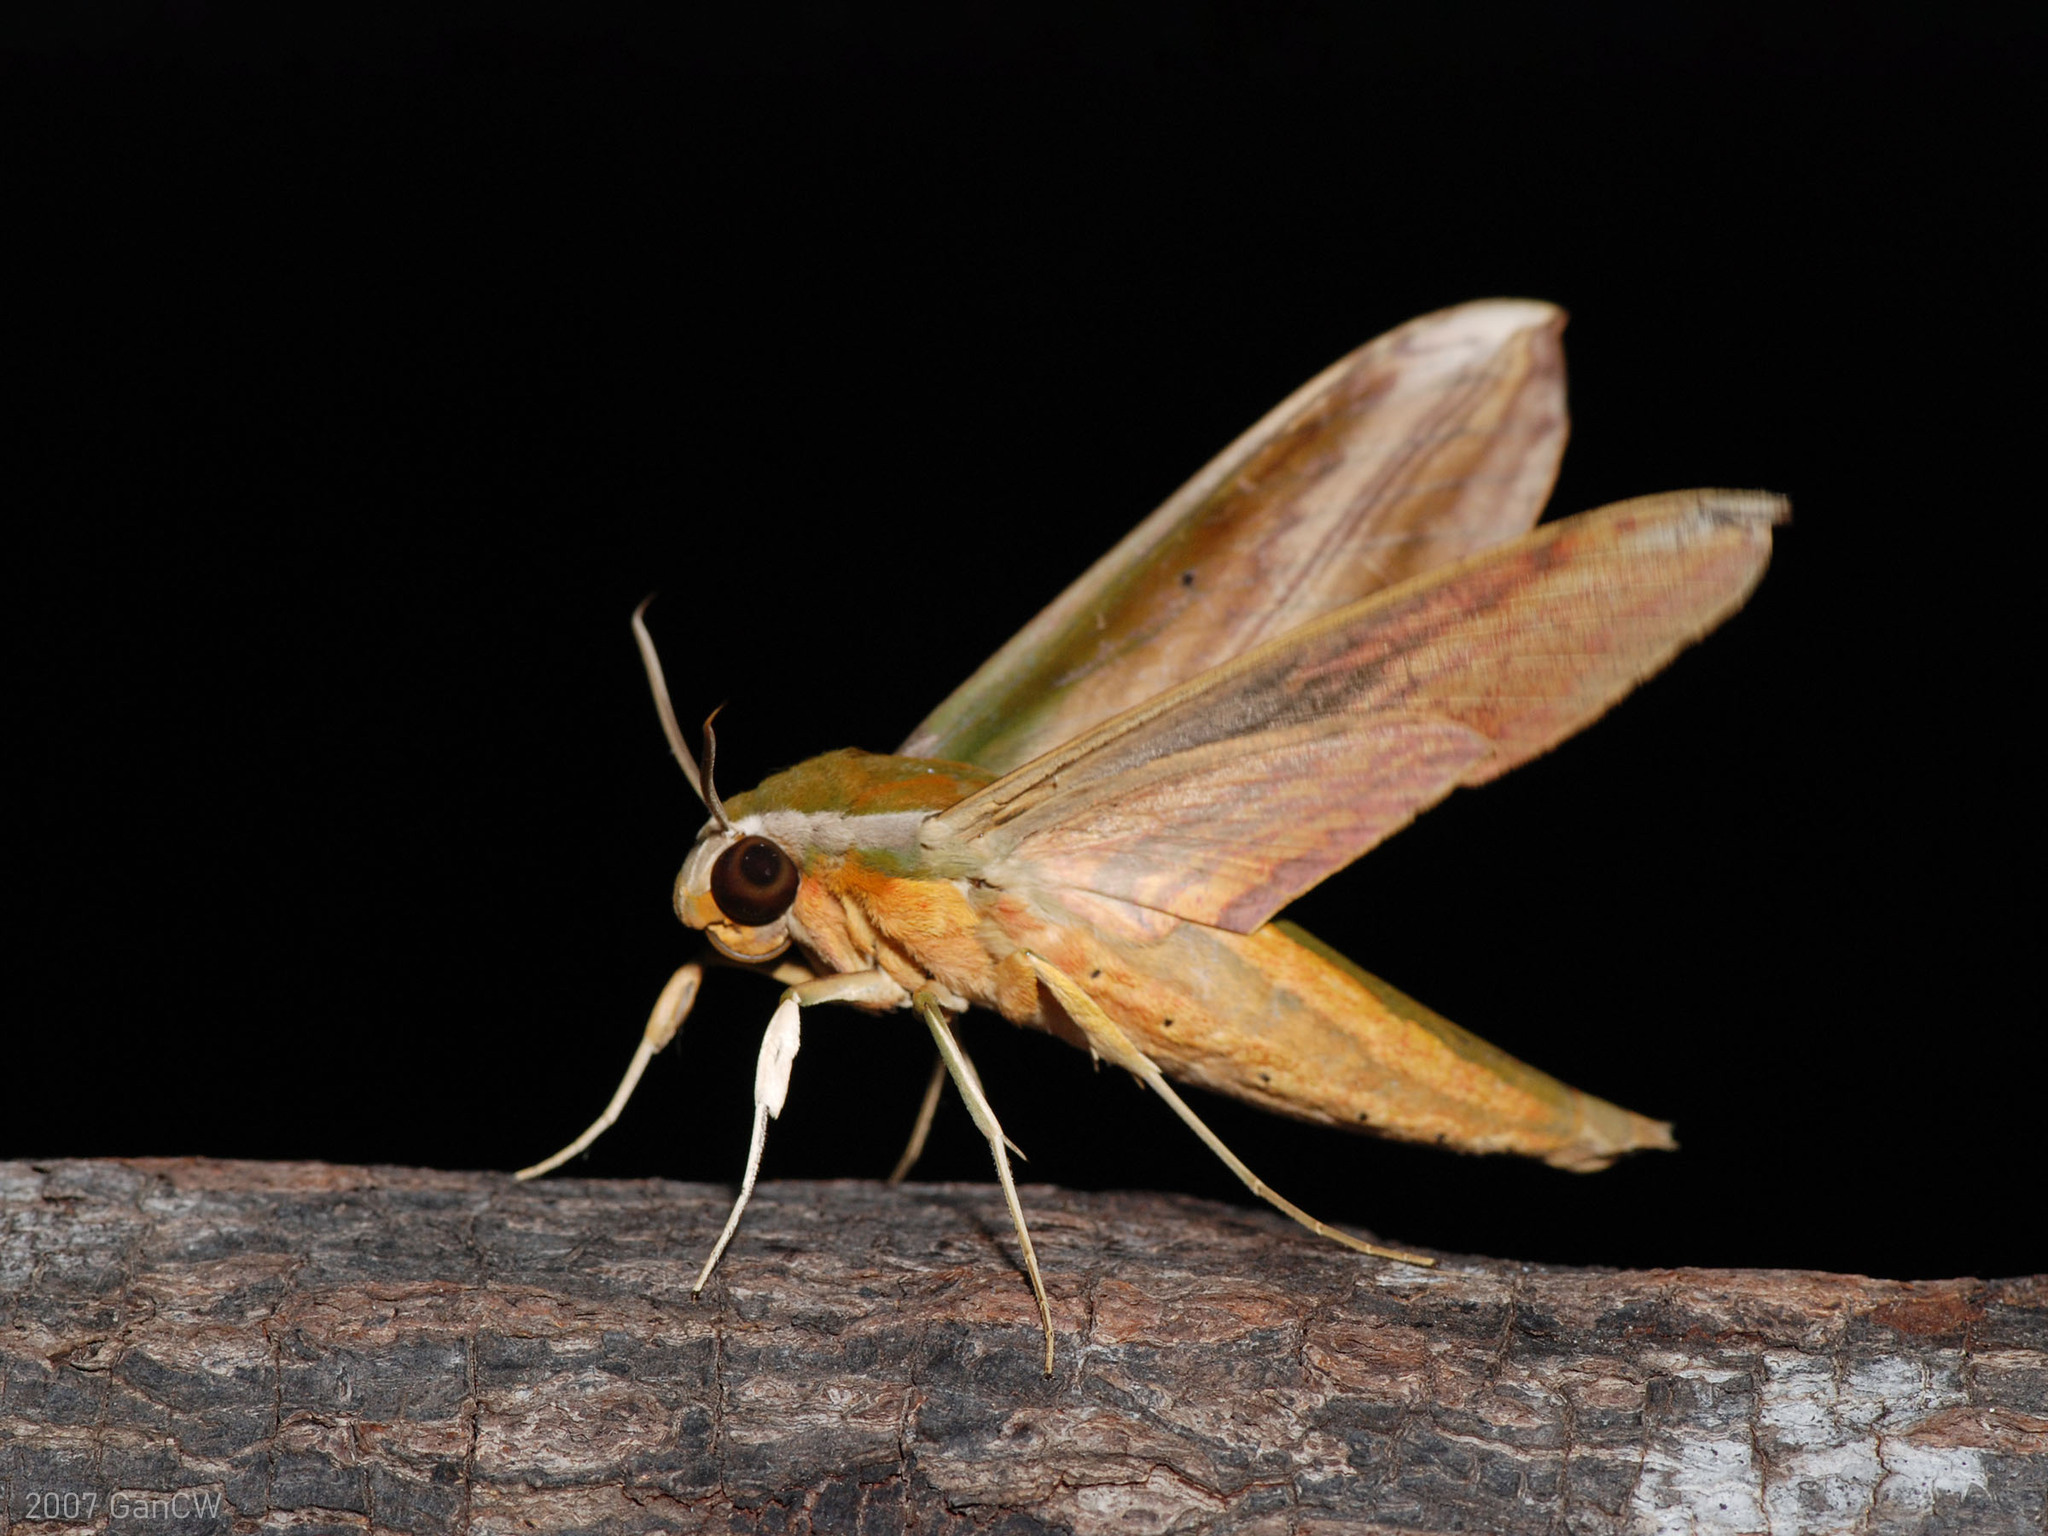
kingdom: Animalia
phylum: Arthropoda
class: Insecta
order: Lepidoptera
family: Sphingidae
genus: Theretra
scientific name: Theretra nessus
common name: Yam hawk moth
